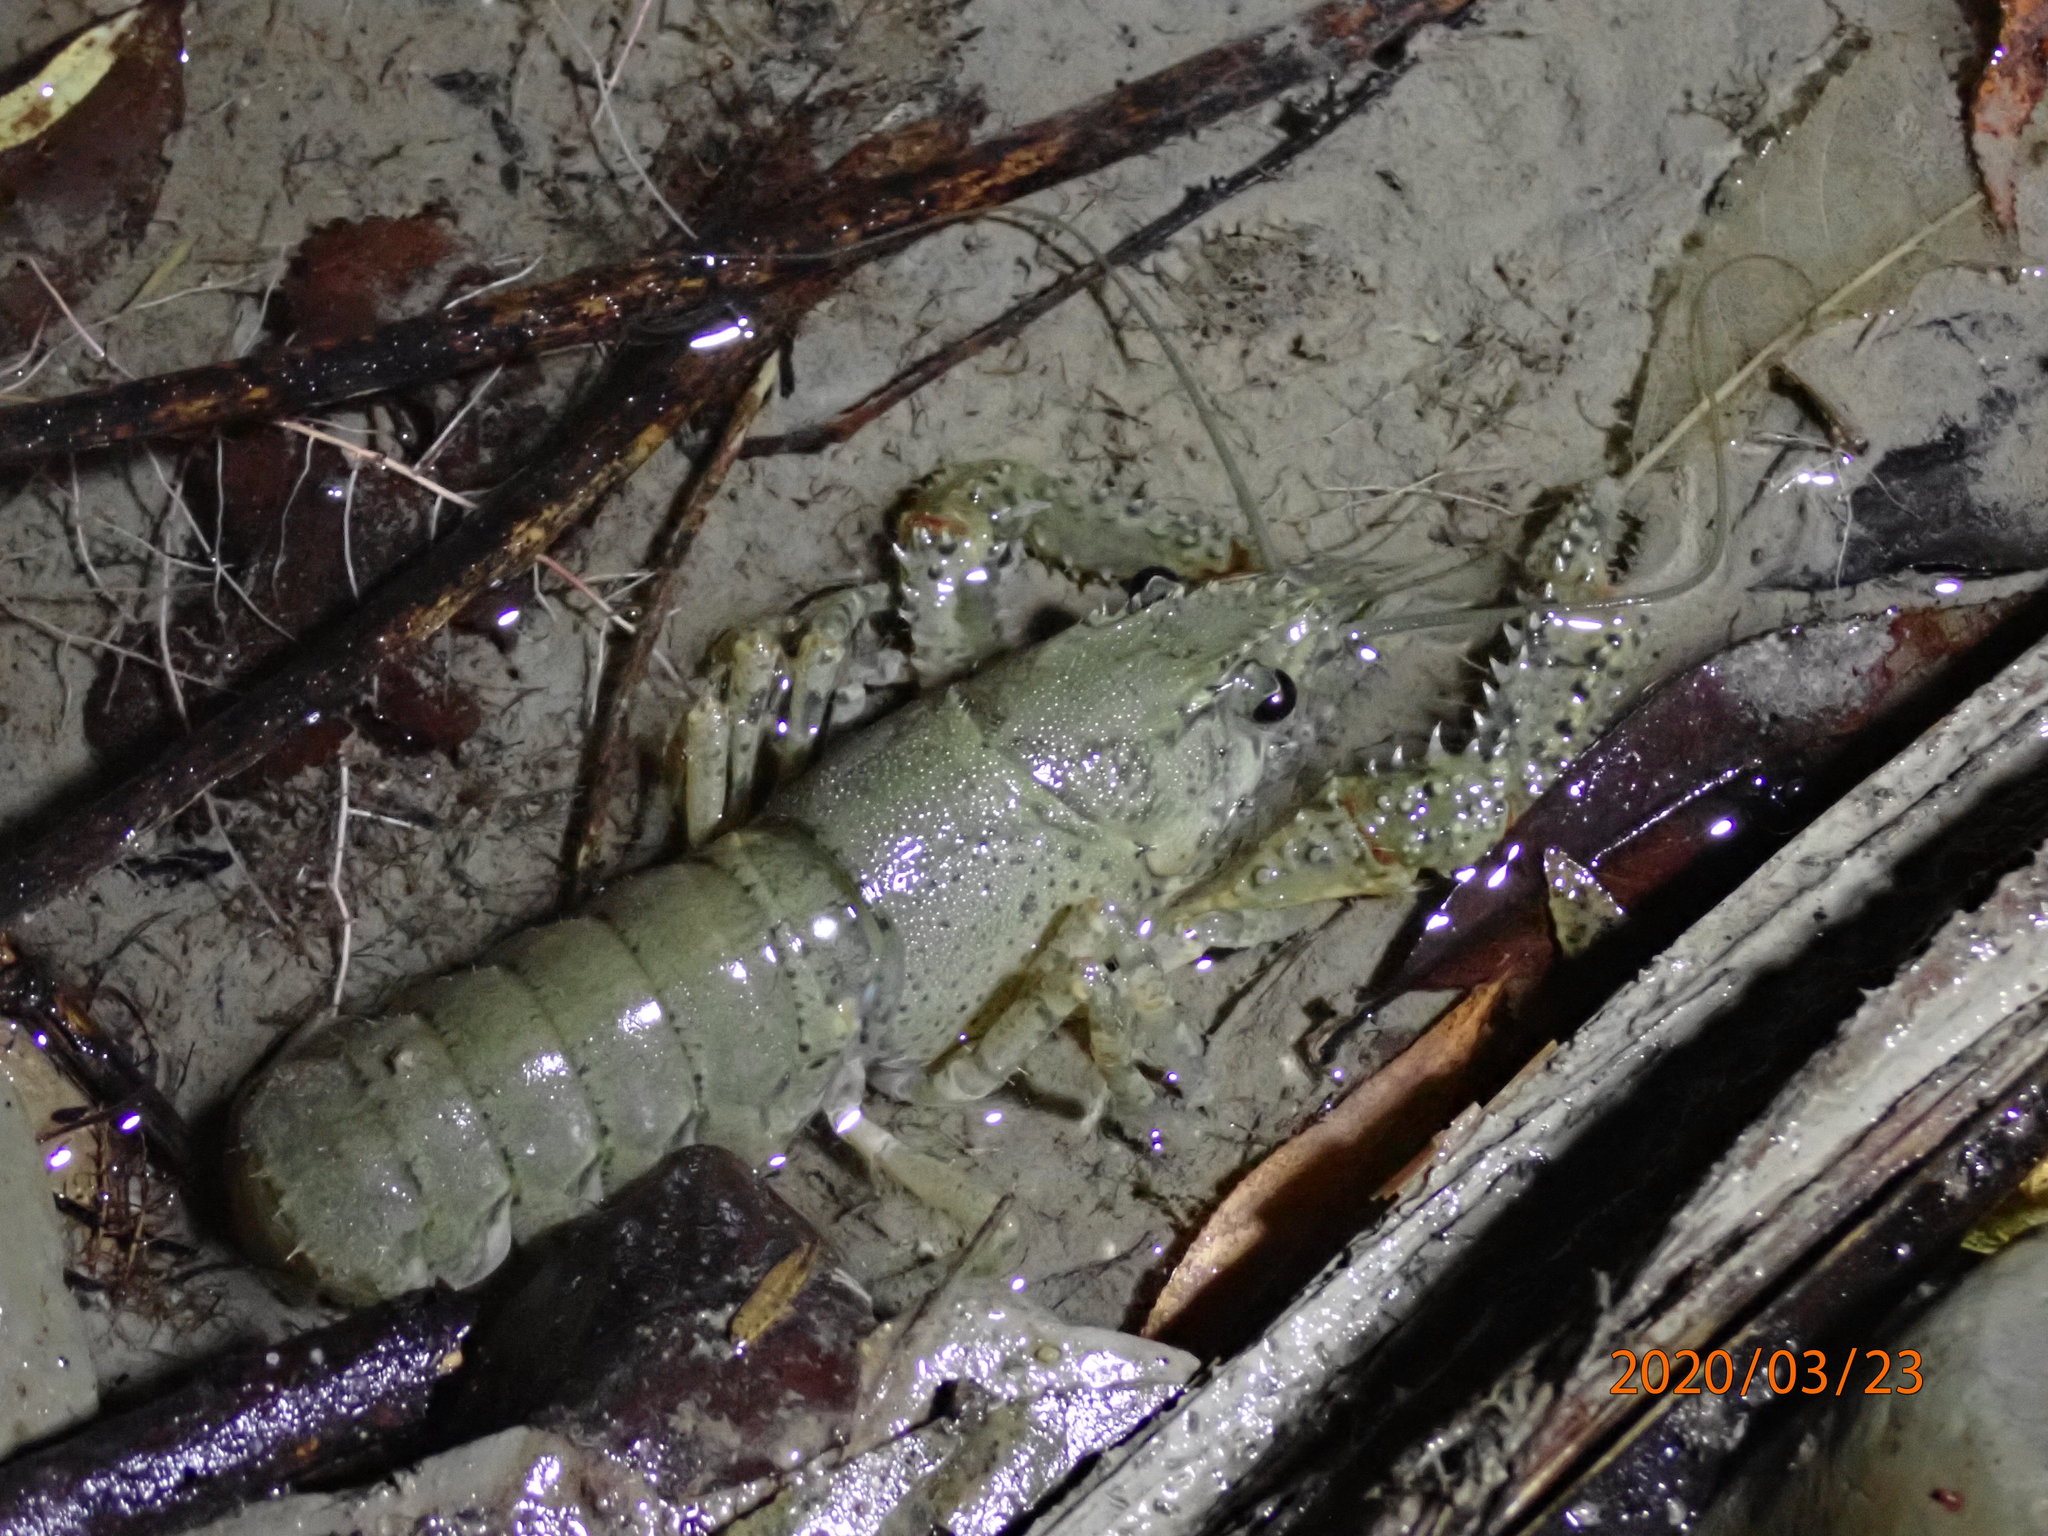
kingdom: Animalia
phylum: Arthropoda
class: Malacostraca
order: Decapoda
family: Parastacidae
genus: Paranephrops
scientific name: Paranephrops planifrons
